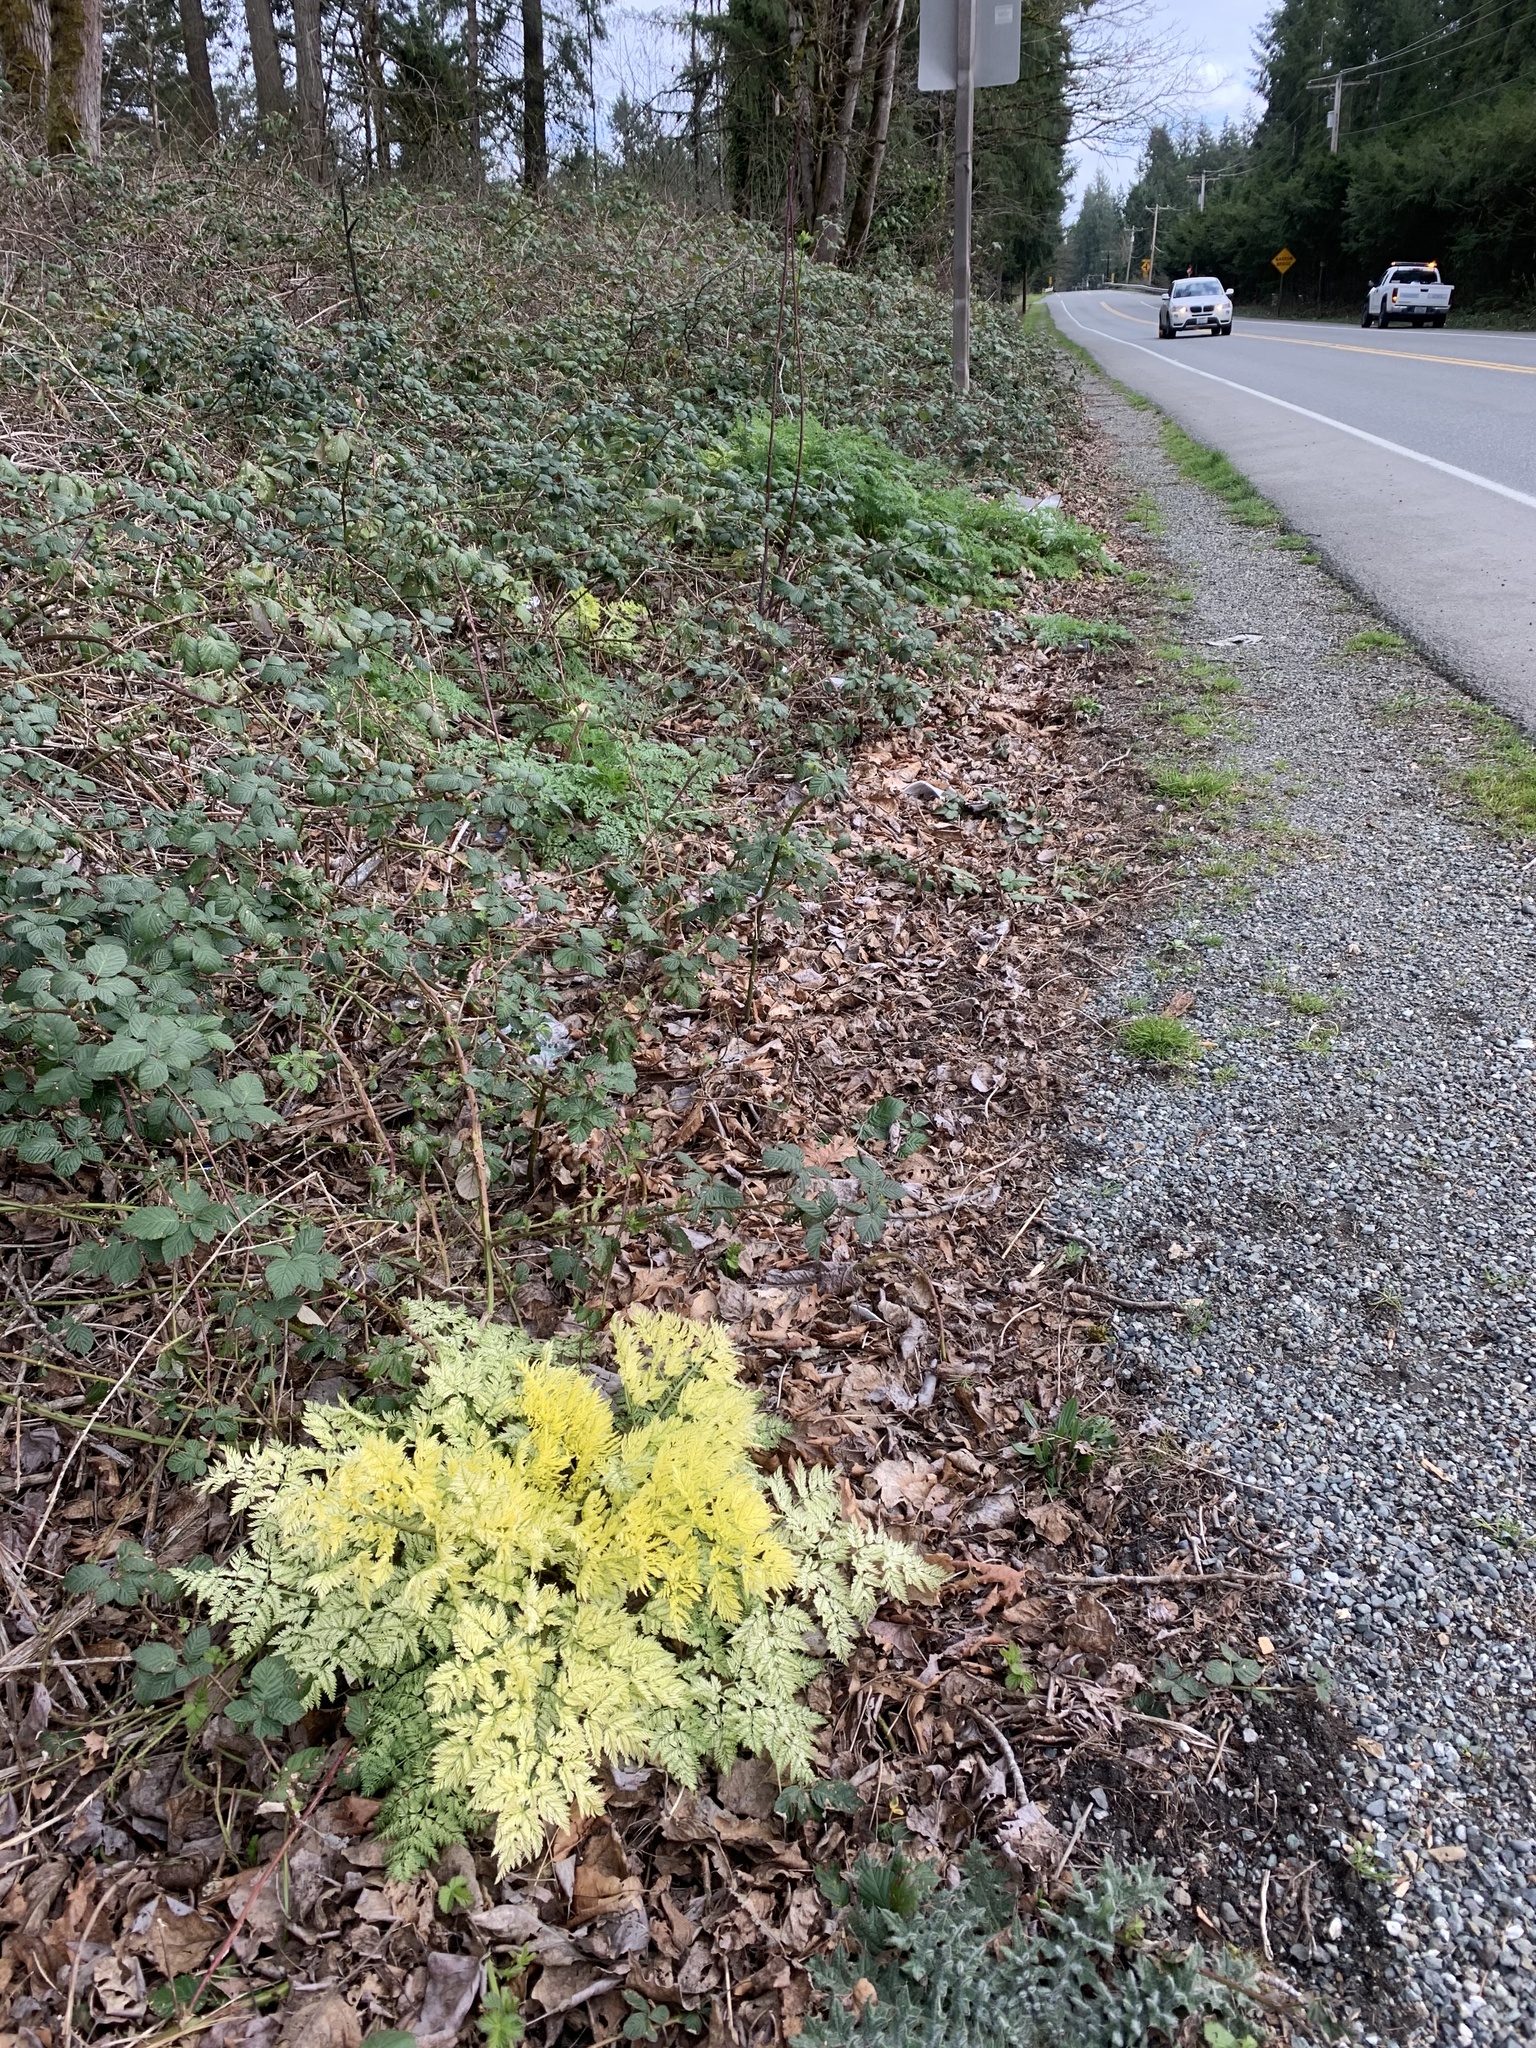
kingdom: Plantae
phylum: Tracheophyta
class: Magnoliopsida
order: Apiales
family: Apiaceae
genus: Conium
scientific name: Conium maculatum
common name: Hemlock
